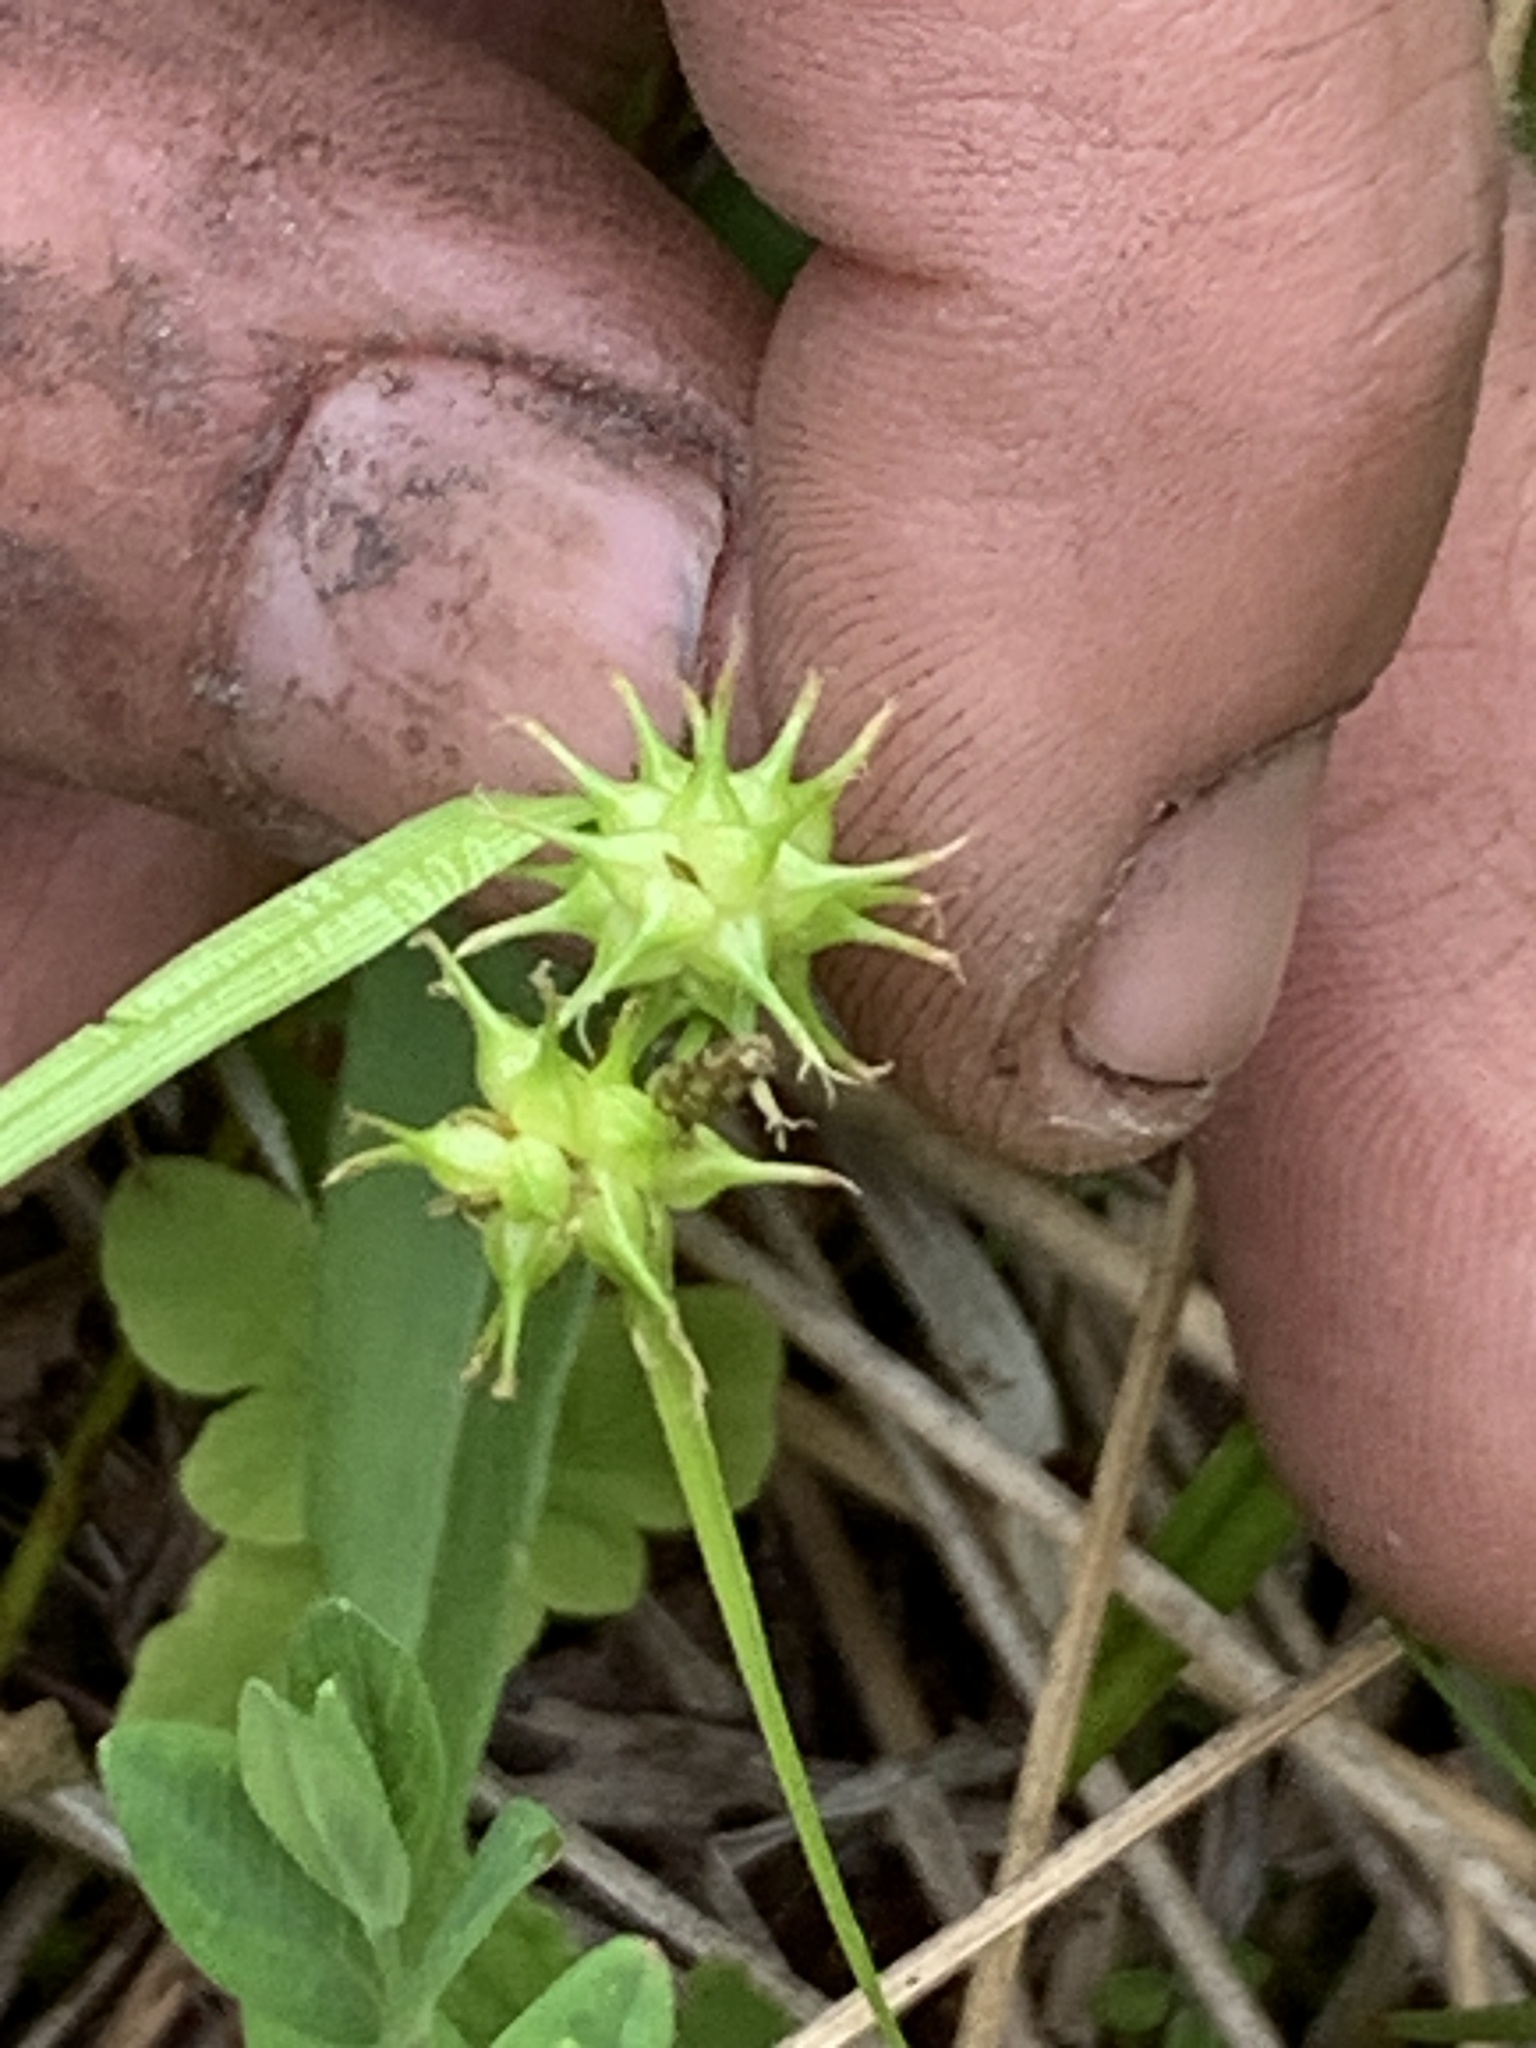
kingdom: Plantae
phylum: Tracheophyta
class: Liliopsida
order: Poales
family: Cyperaceae
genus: Carex
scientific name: Carex flava
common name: Large yellow-sedge
